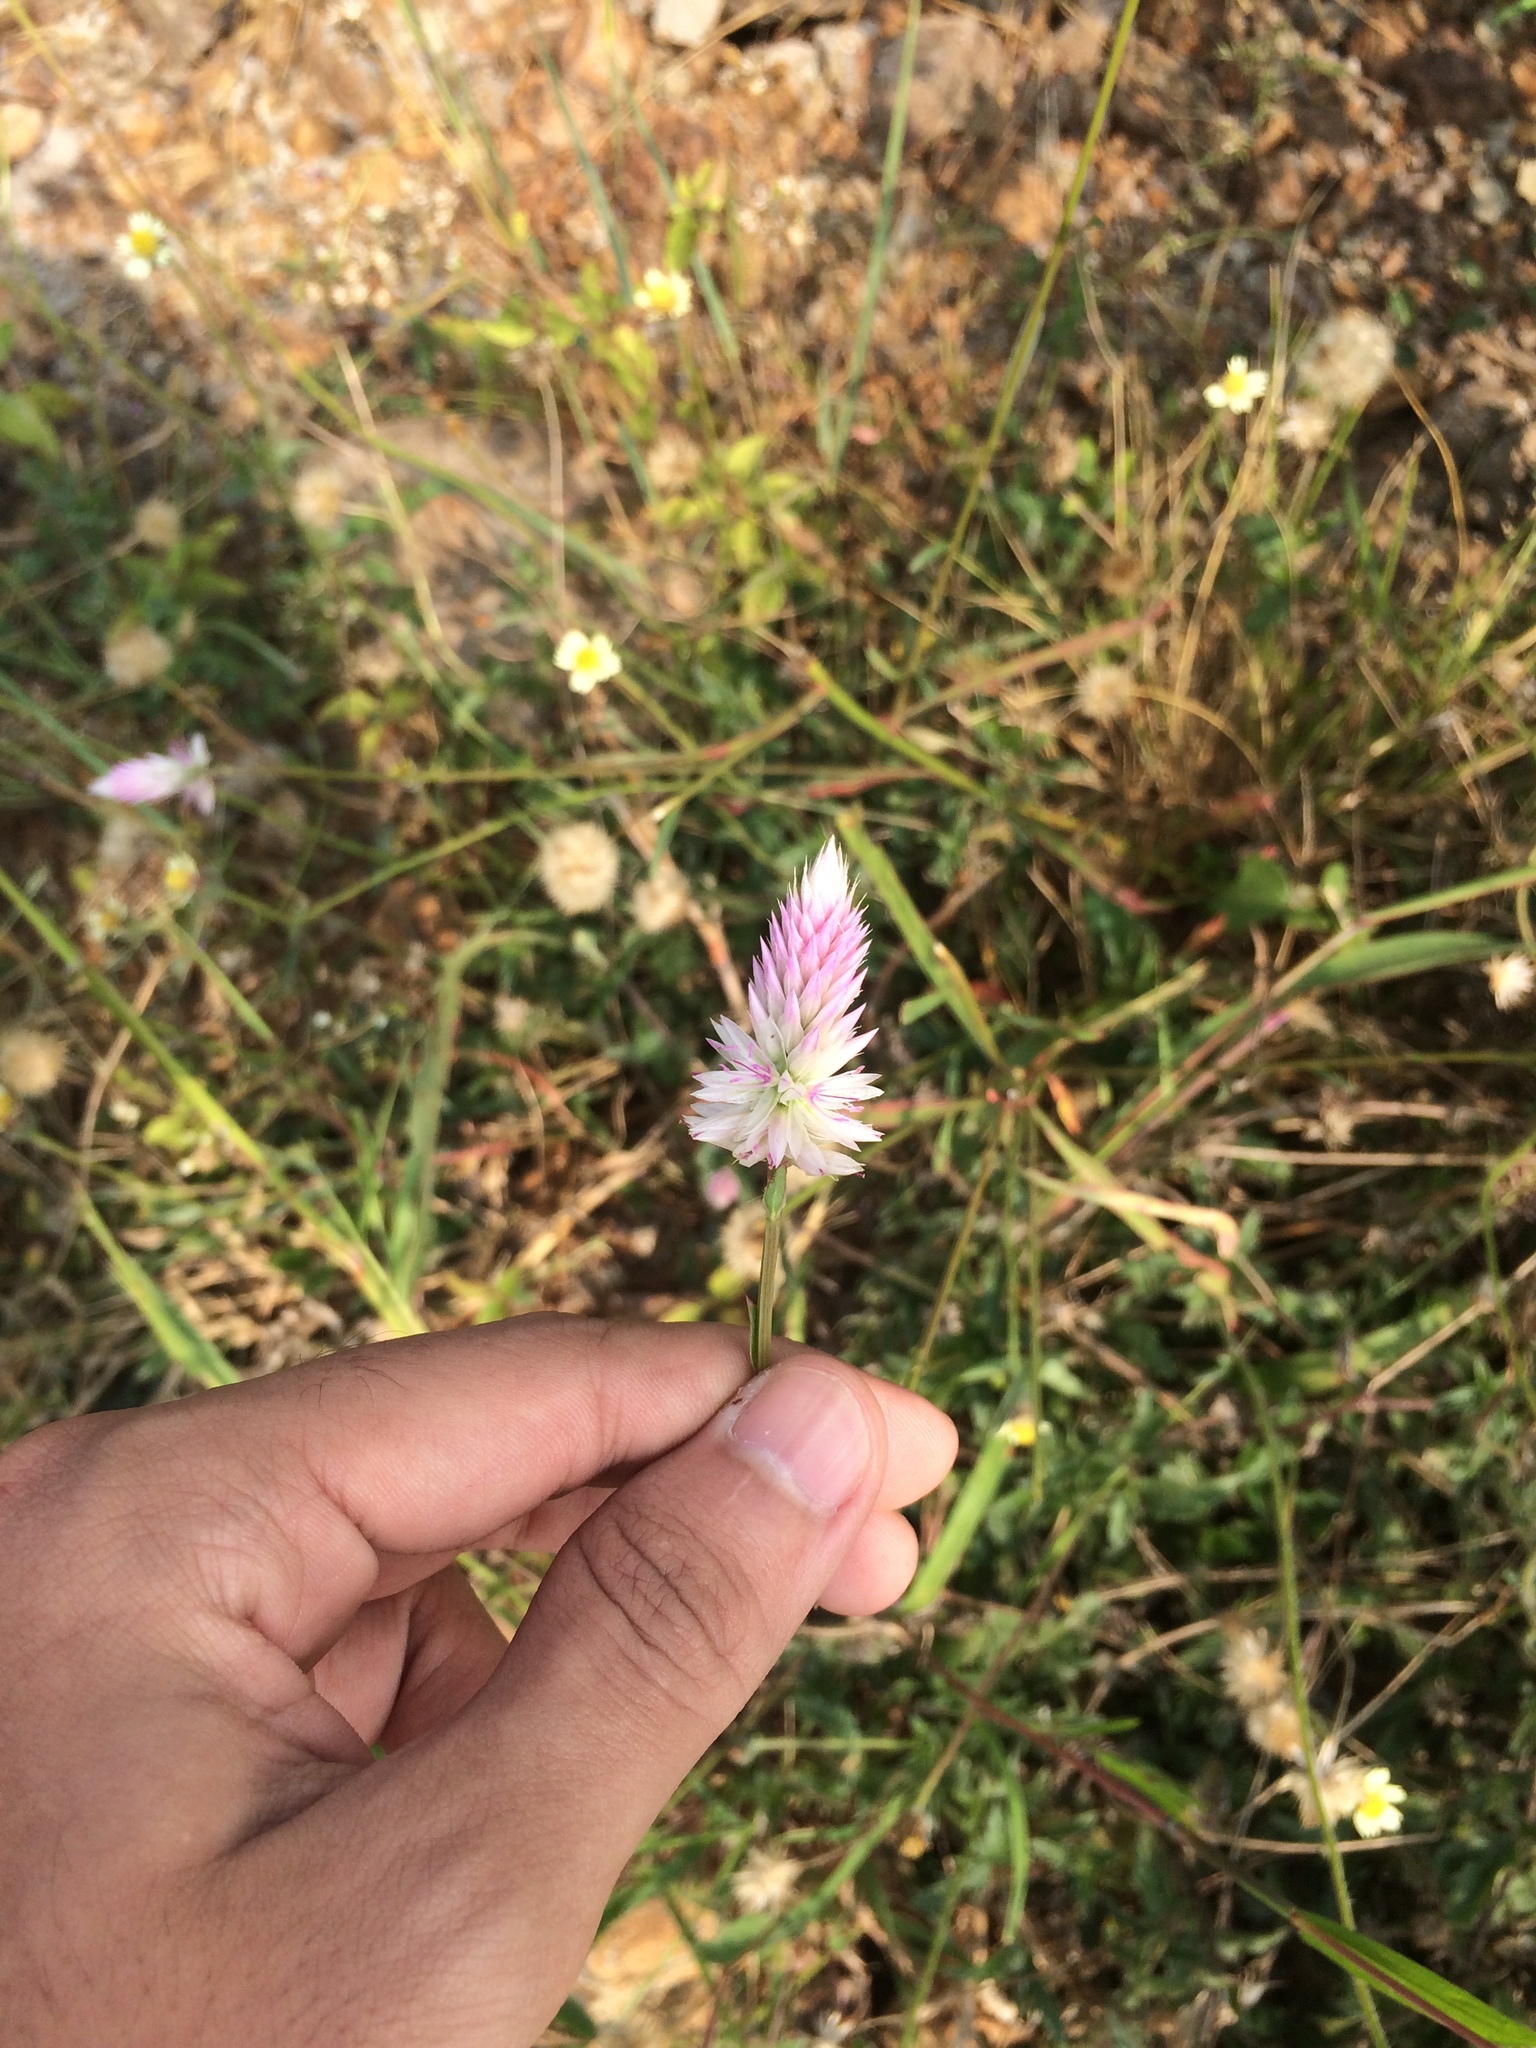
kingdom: Plantae
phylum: Tracheophyta
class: Magnoliopsida
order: Caryophyllales
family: Amaranthaceae
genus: Celosia
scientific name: Celosia argentea
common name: Feather cockscomb
